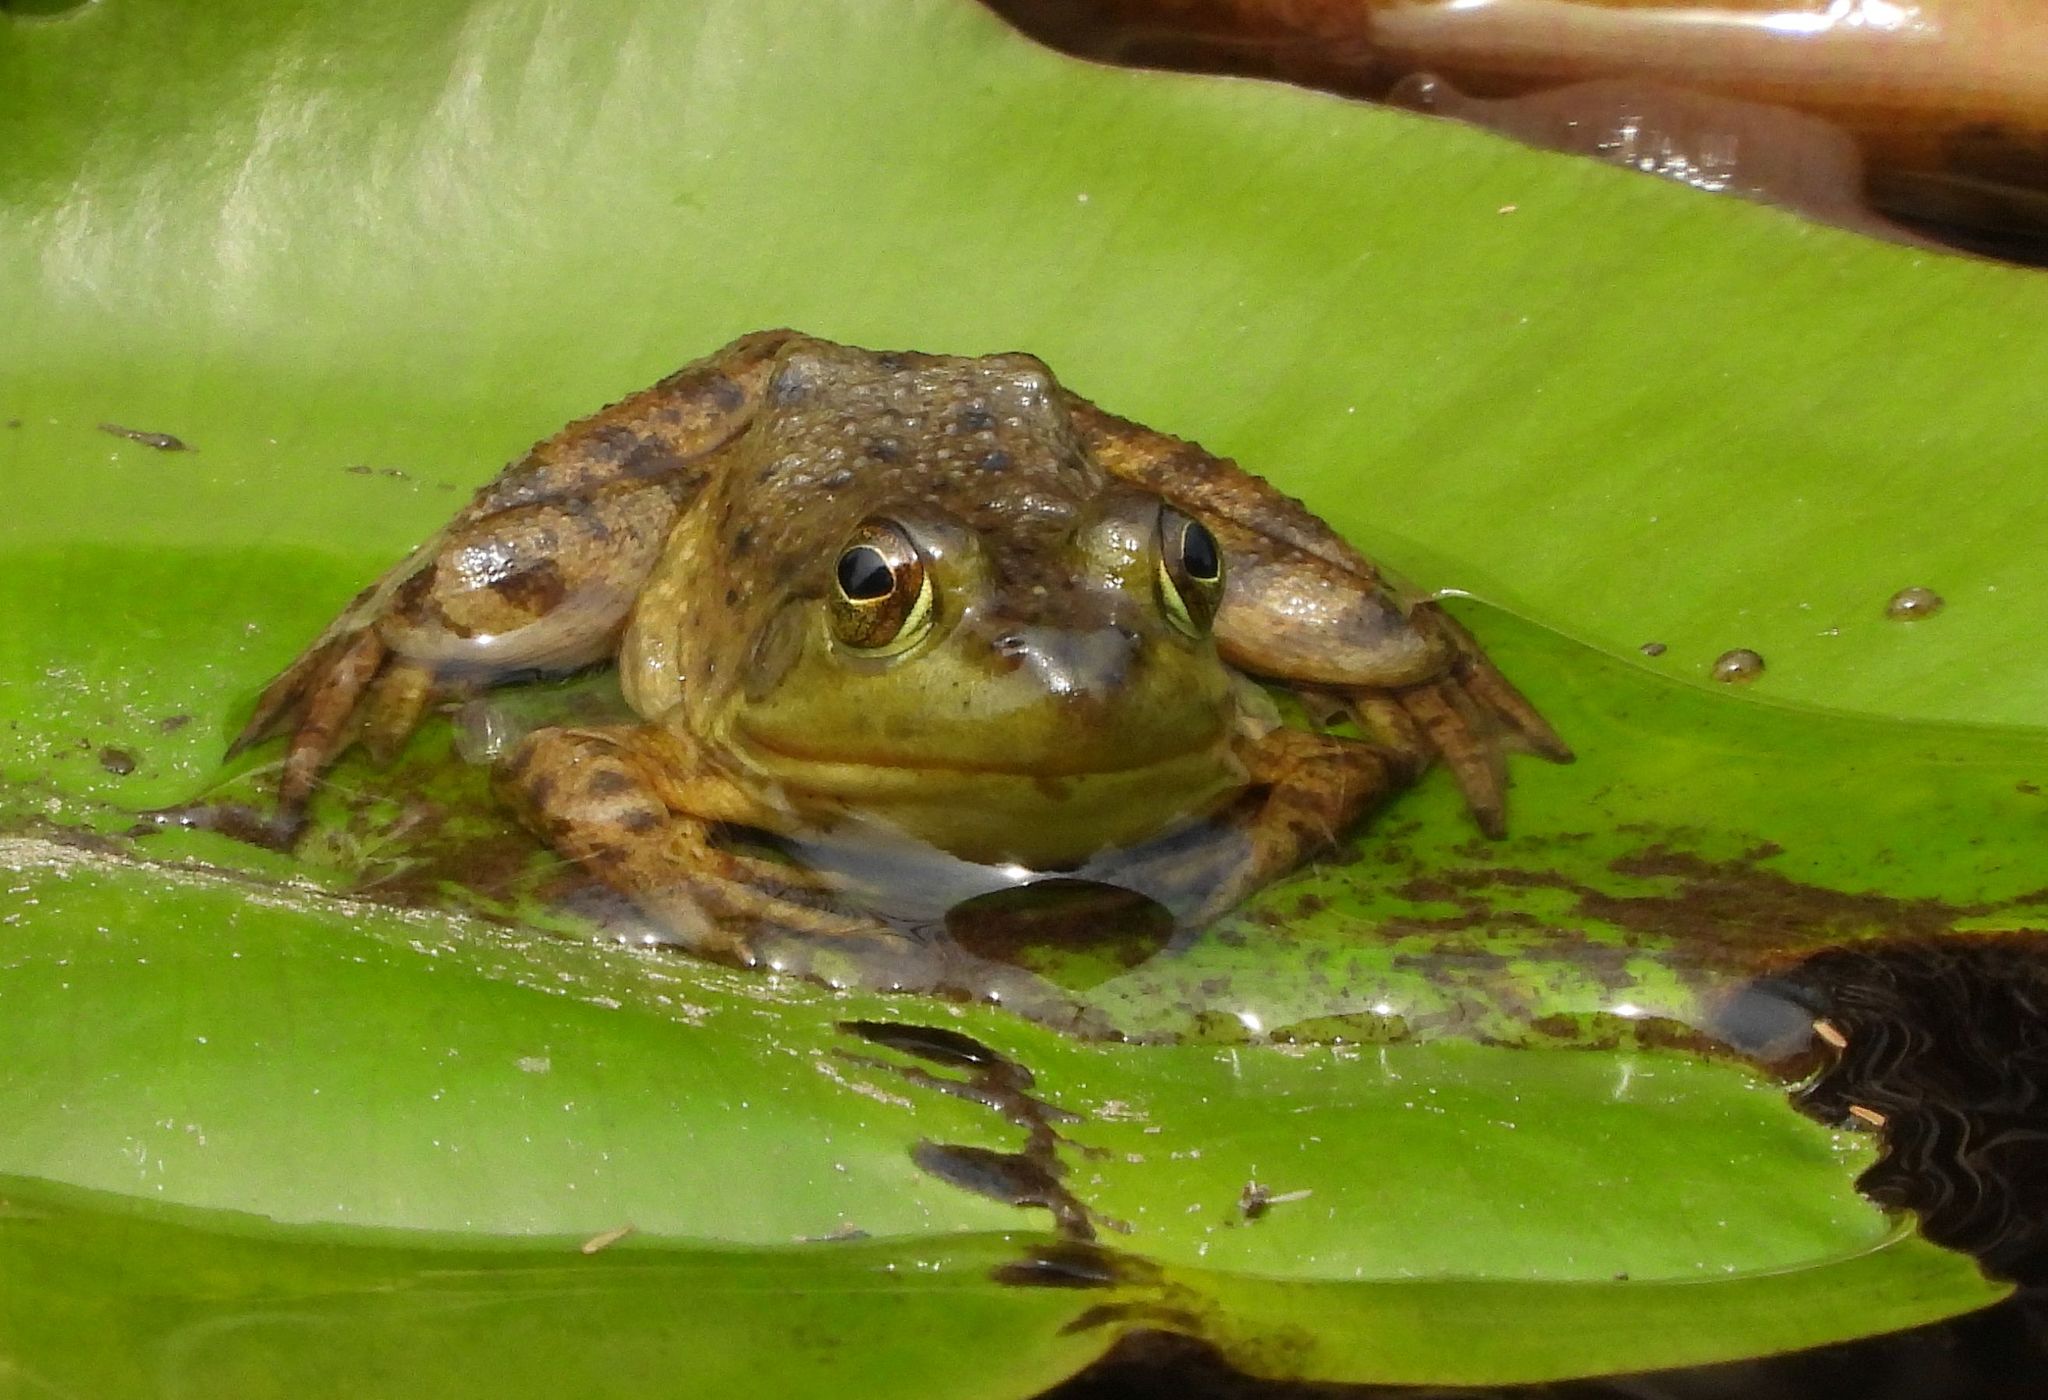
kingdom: Animalia
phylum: Chordata
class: Amphibia
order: Anura
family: Ranidae
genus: Lithobates
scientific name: Lithobates catesbeianus
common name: American bullfrog
